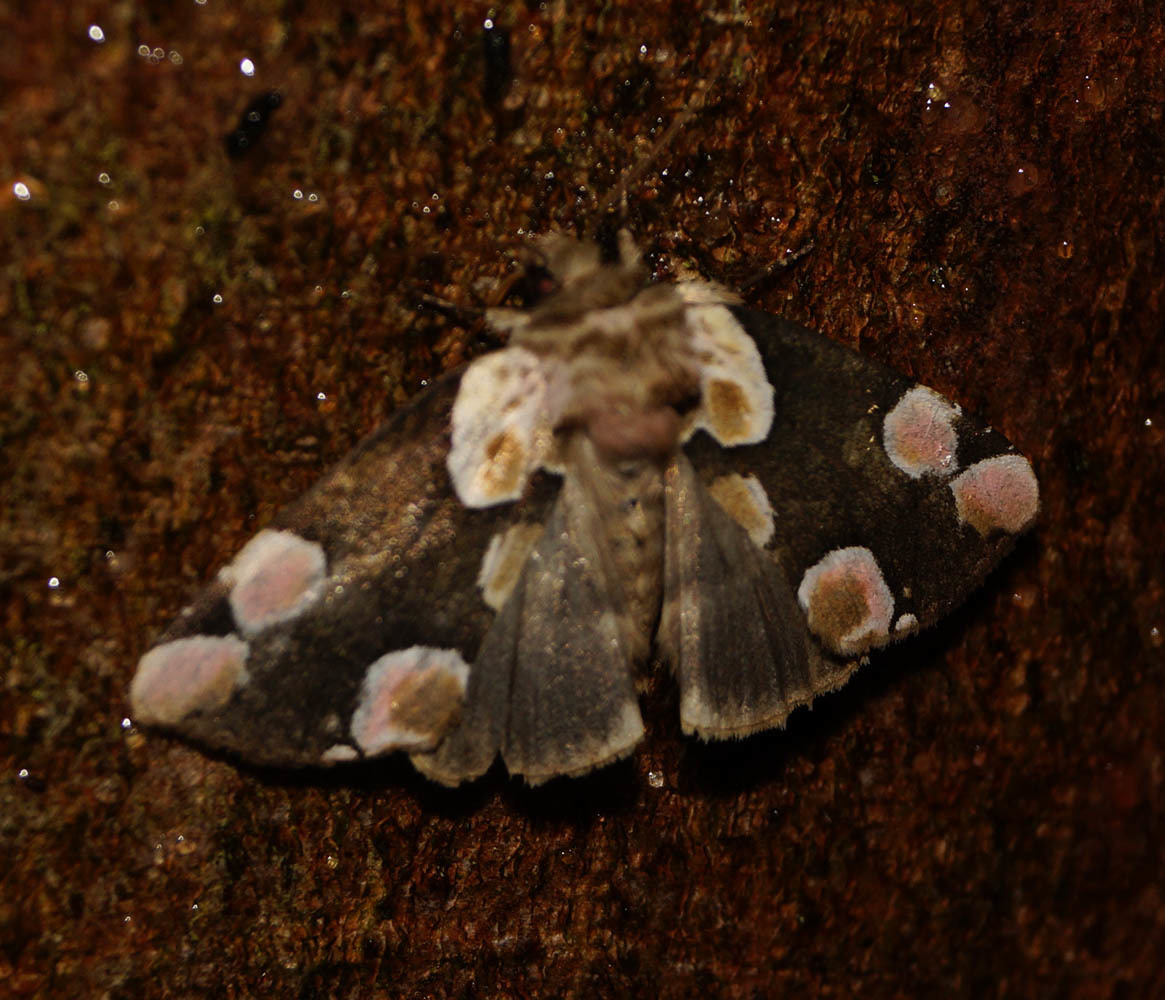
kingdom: Animalia
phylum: Arthropoda
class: Insecta
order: Lepidoptera
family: Drepanidae
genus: Thyatira
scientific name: Thyatira batis
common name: Peach blossom
